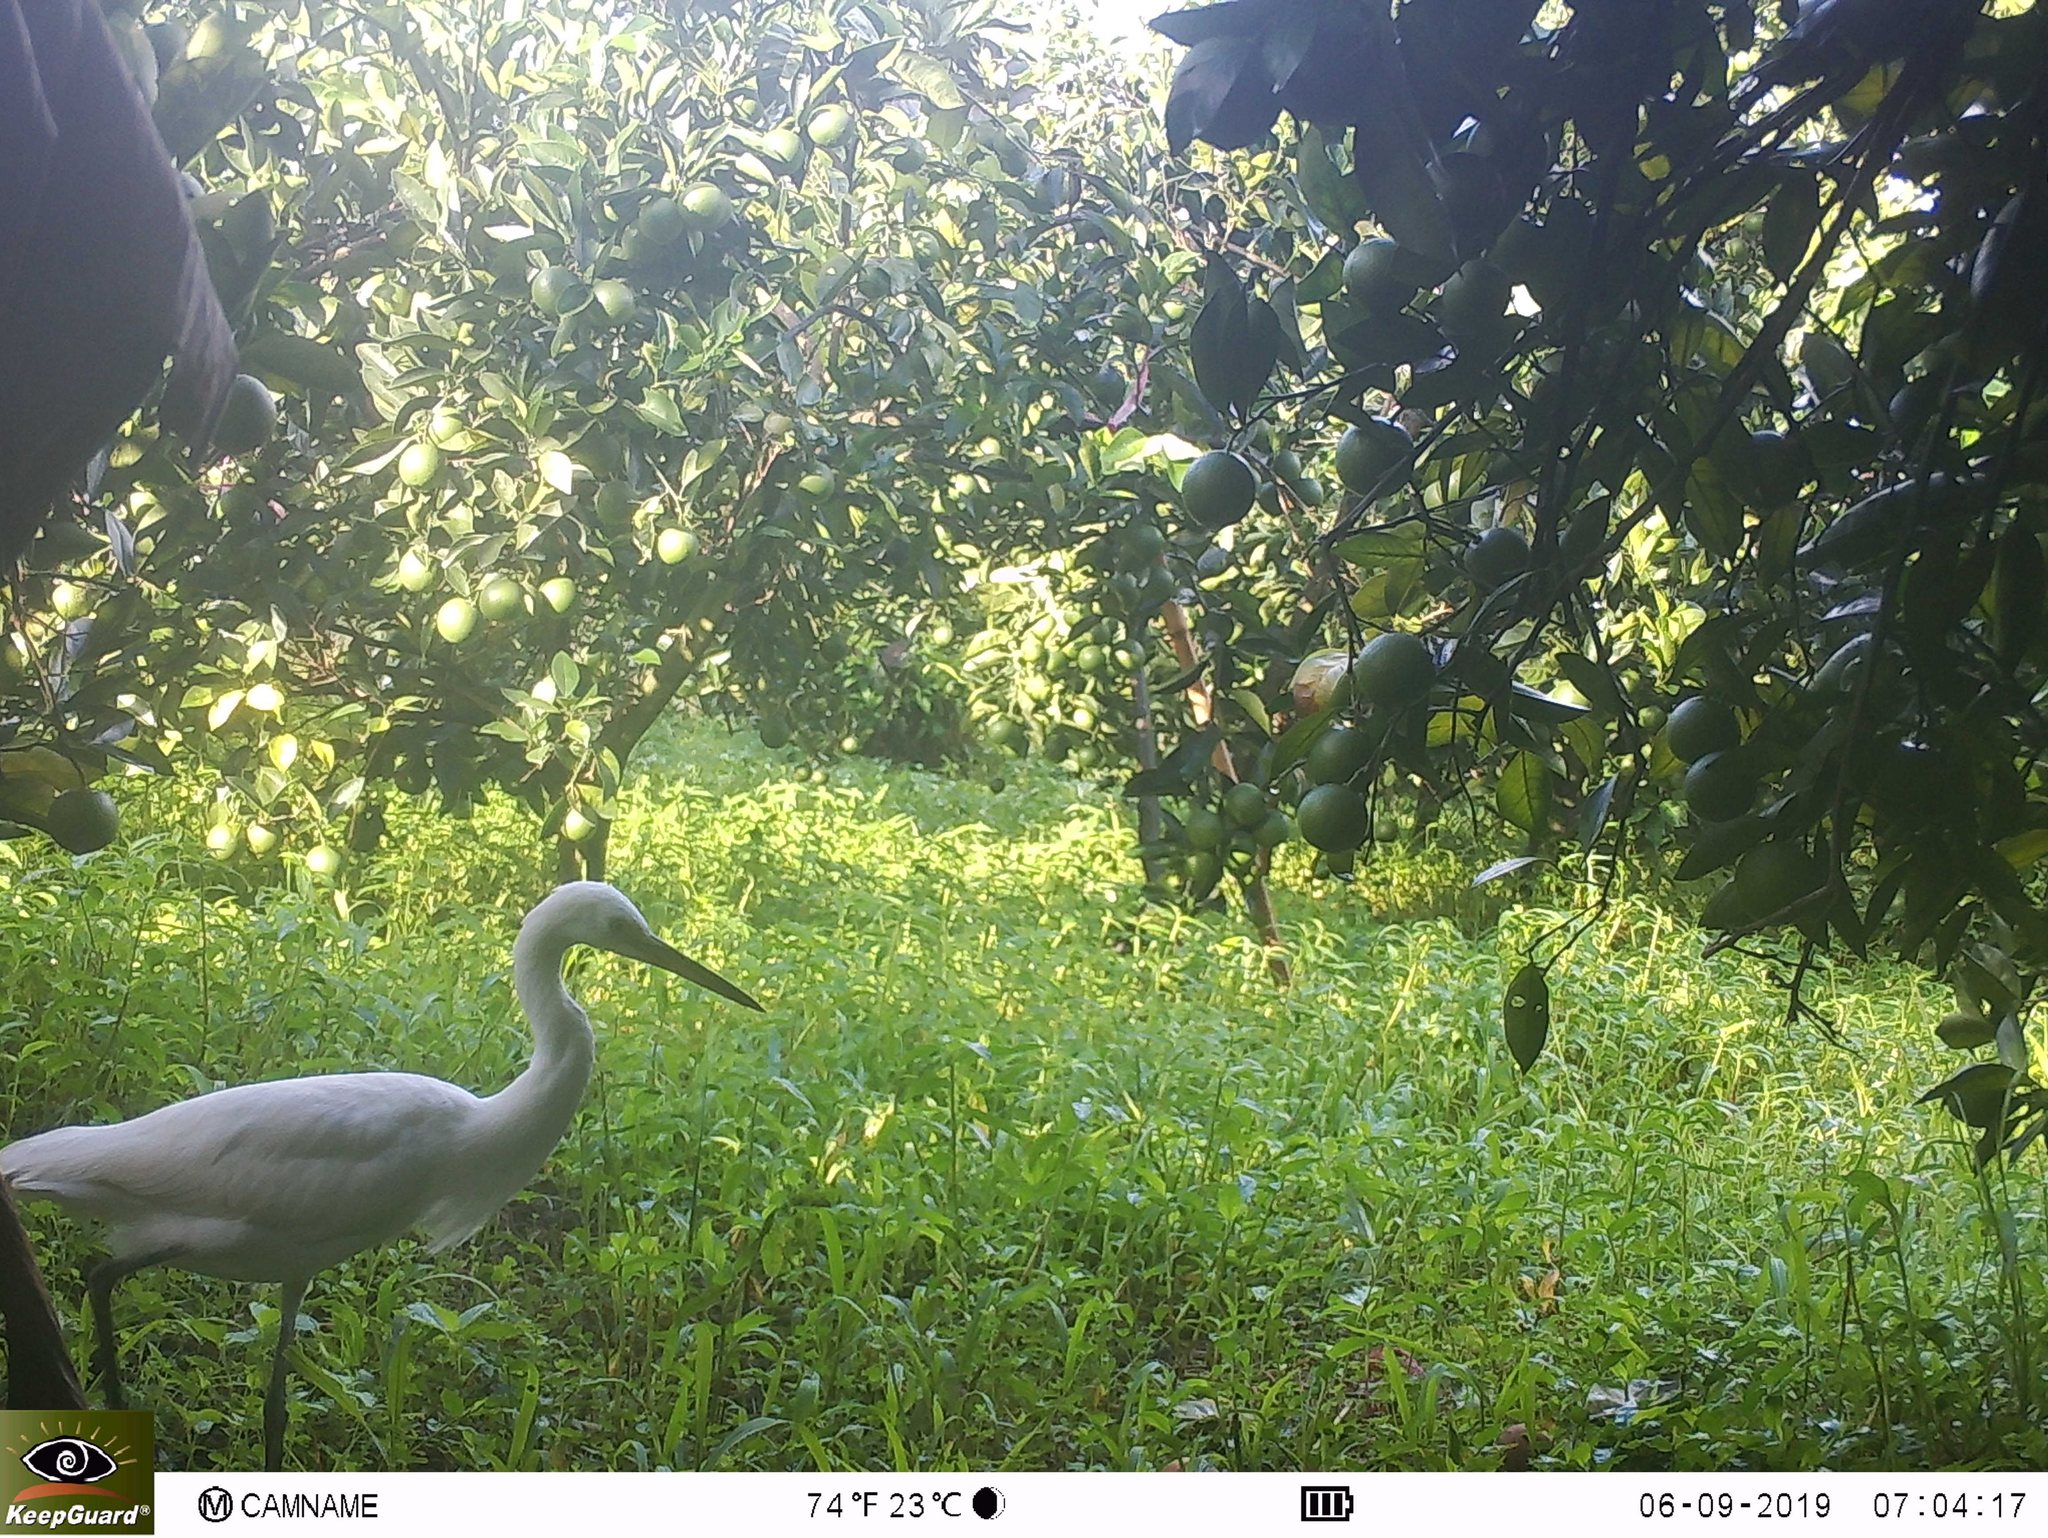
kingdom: Animalia
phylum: Chordata
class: Aves
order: Pelecaniformes
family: Ardeidae
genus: Egretta
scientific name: Egretta garzetta
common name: Little egret
